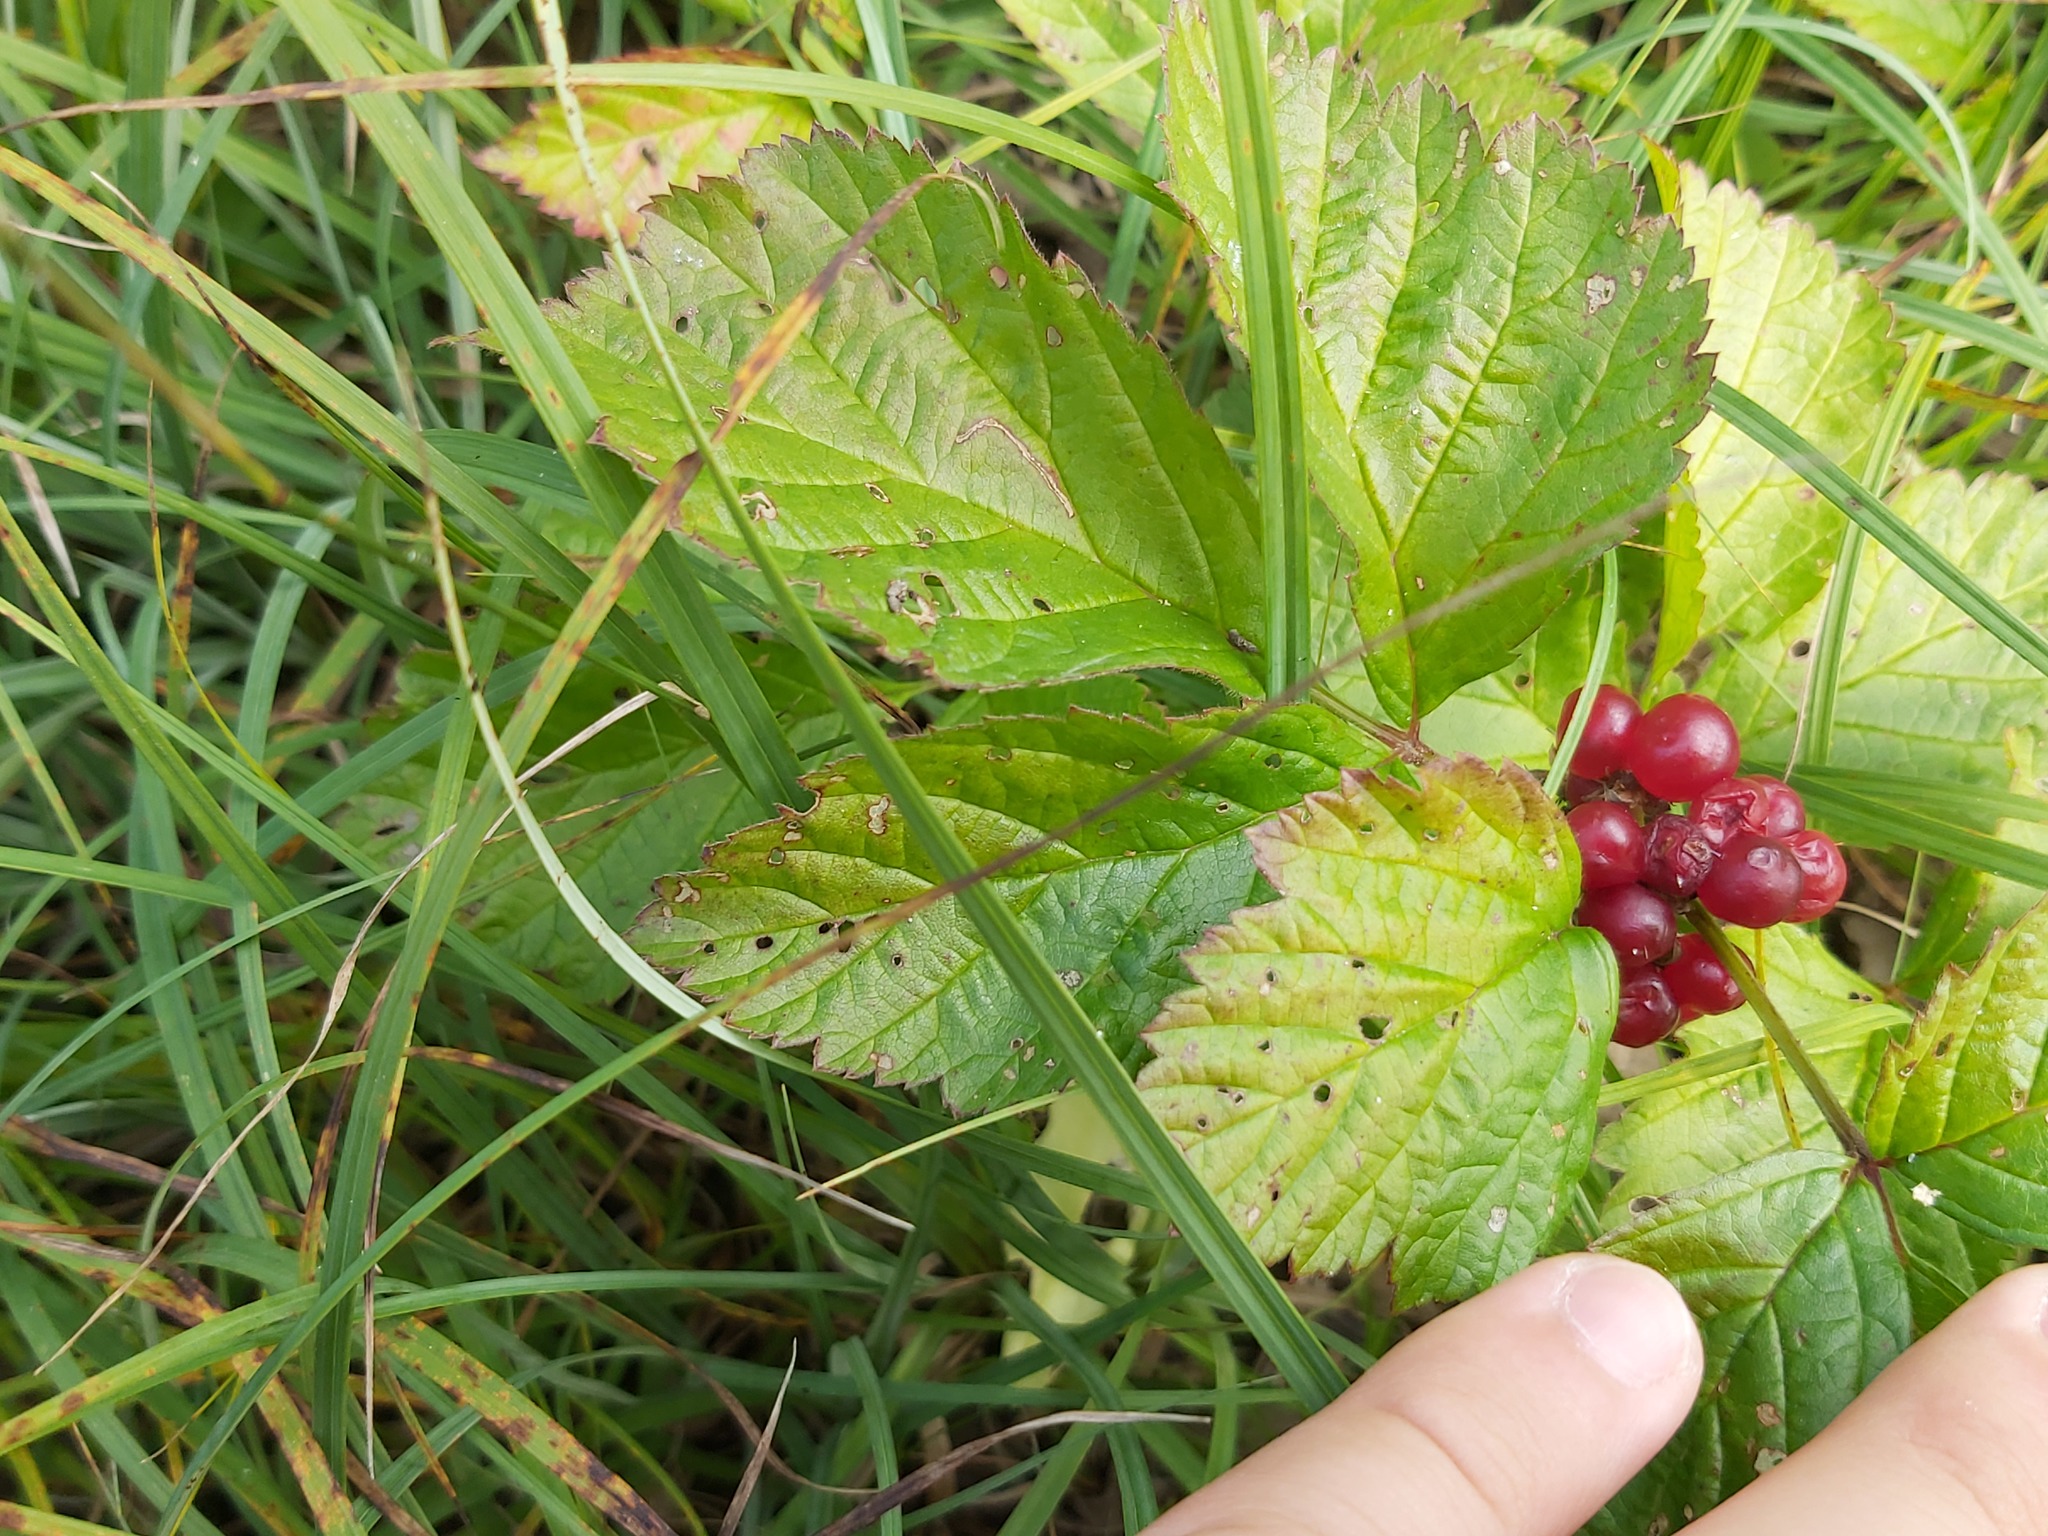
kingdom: Plantae
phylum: Tracheophyta
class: Magnoliopsida
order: Rosales
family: Rosaceae
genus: Rubus
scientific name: Rubus saxatilis
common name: Stone bramble
